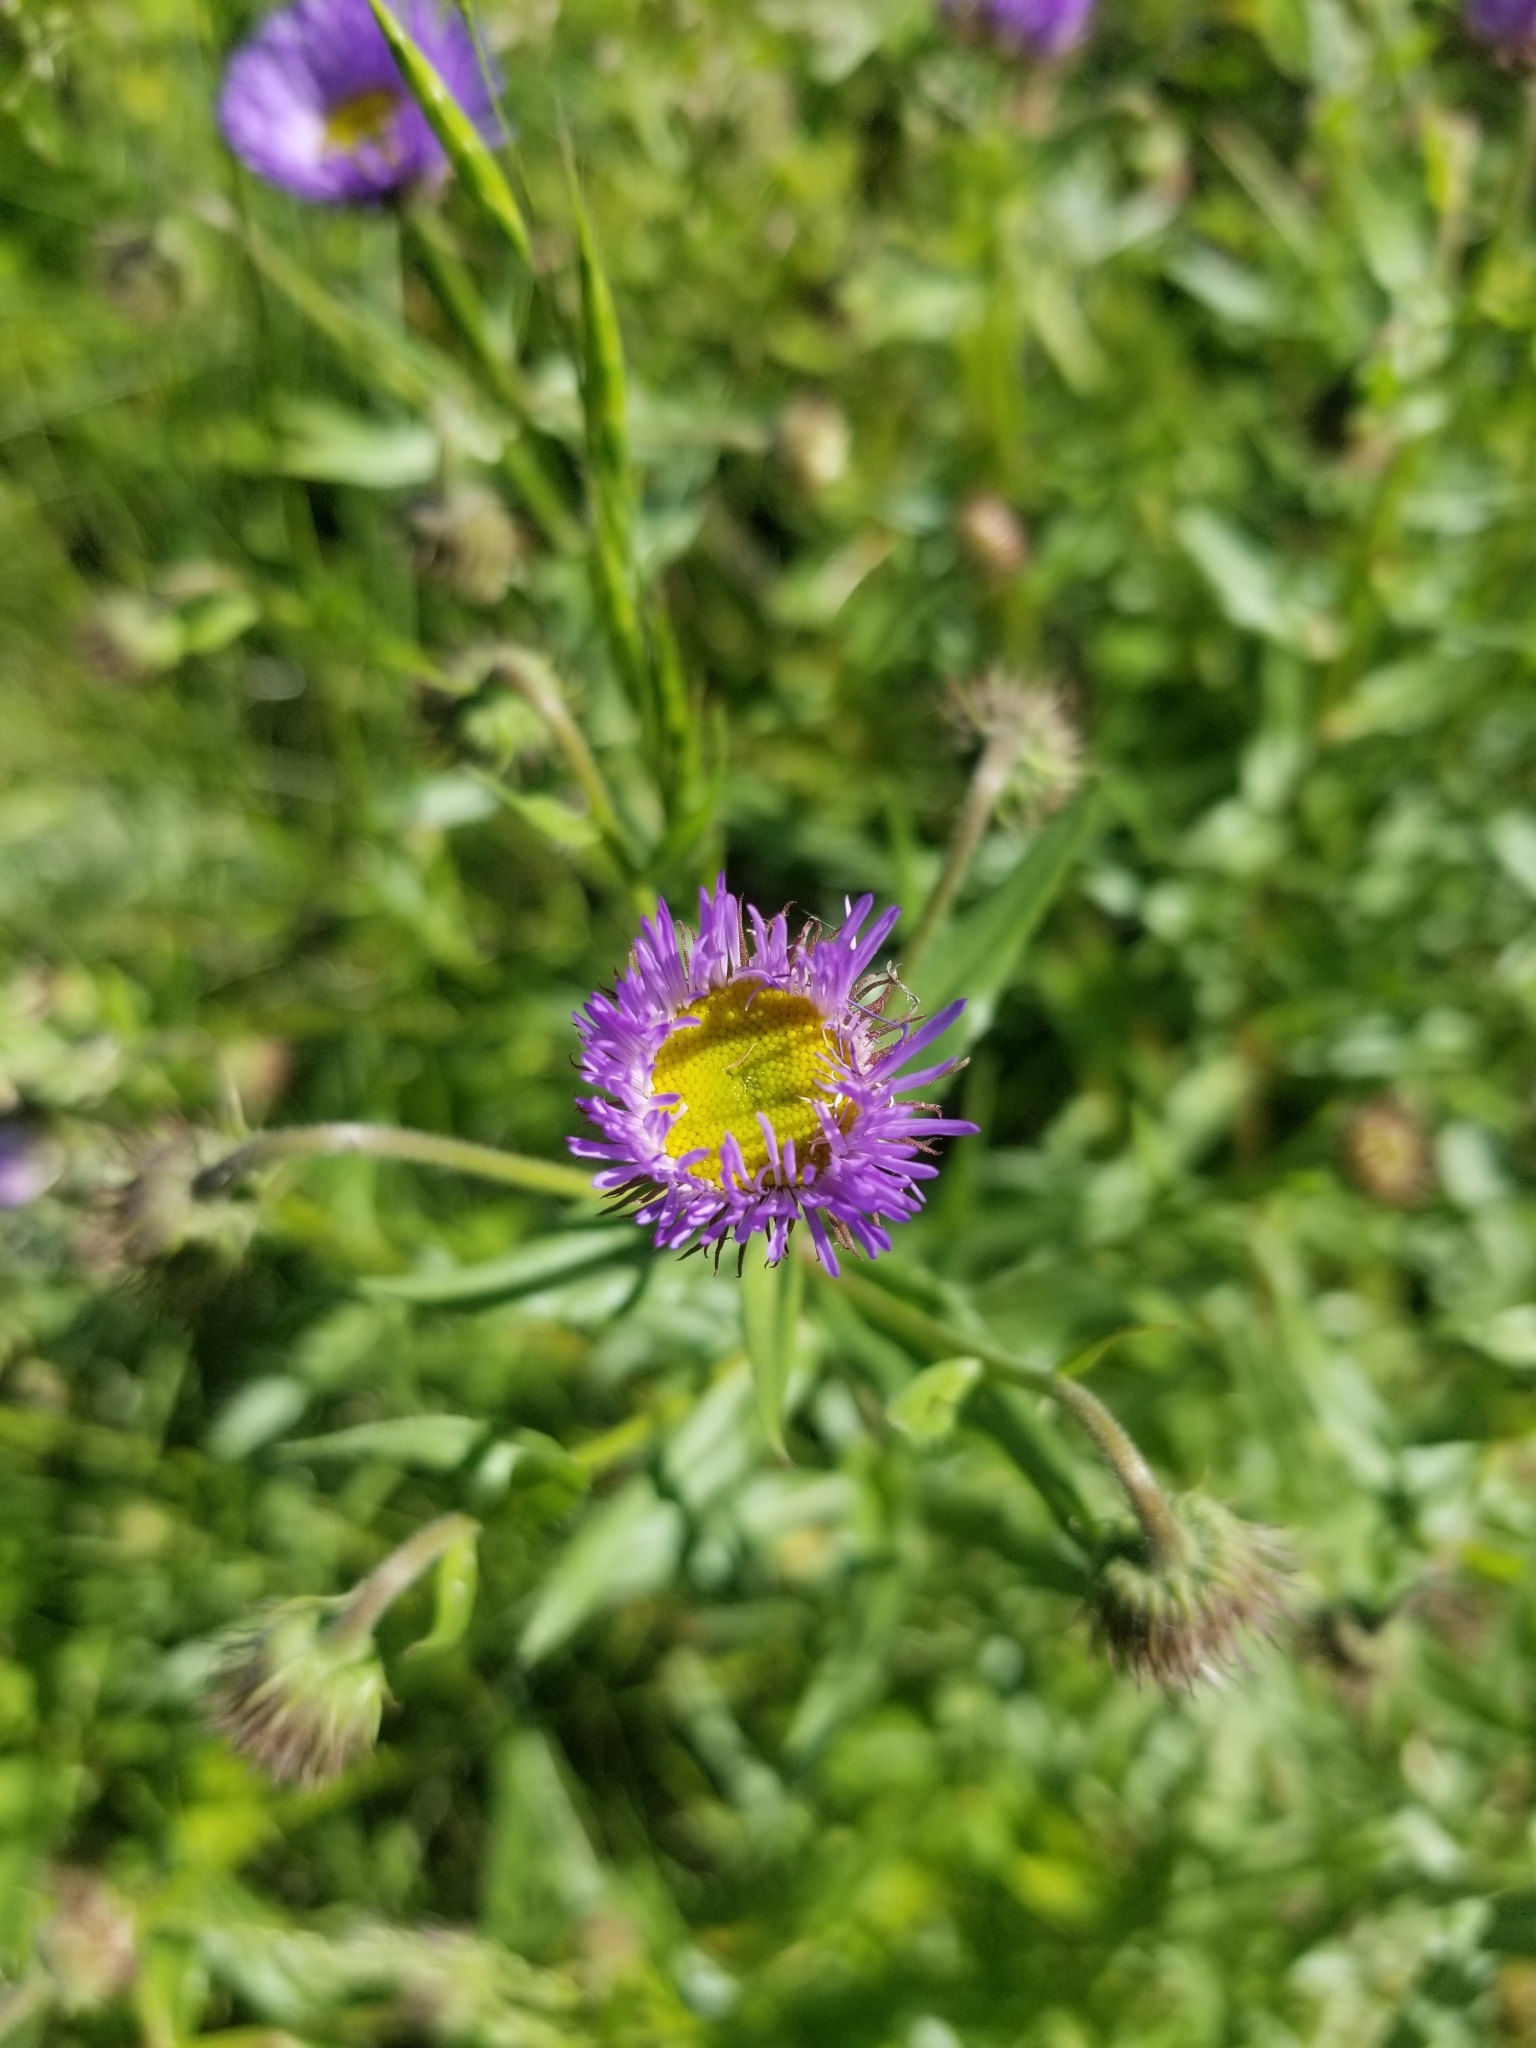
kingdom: Plantae
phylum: Tracheophyta
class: Magnoliopsida
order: Asterales
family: Asteraceae
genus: Erigeron
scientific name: Erigeron speciosus
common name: Aspen fleabane
